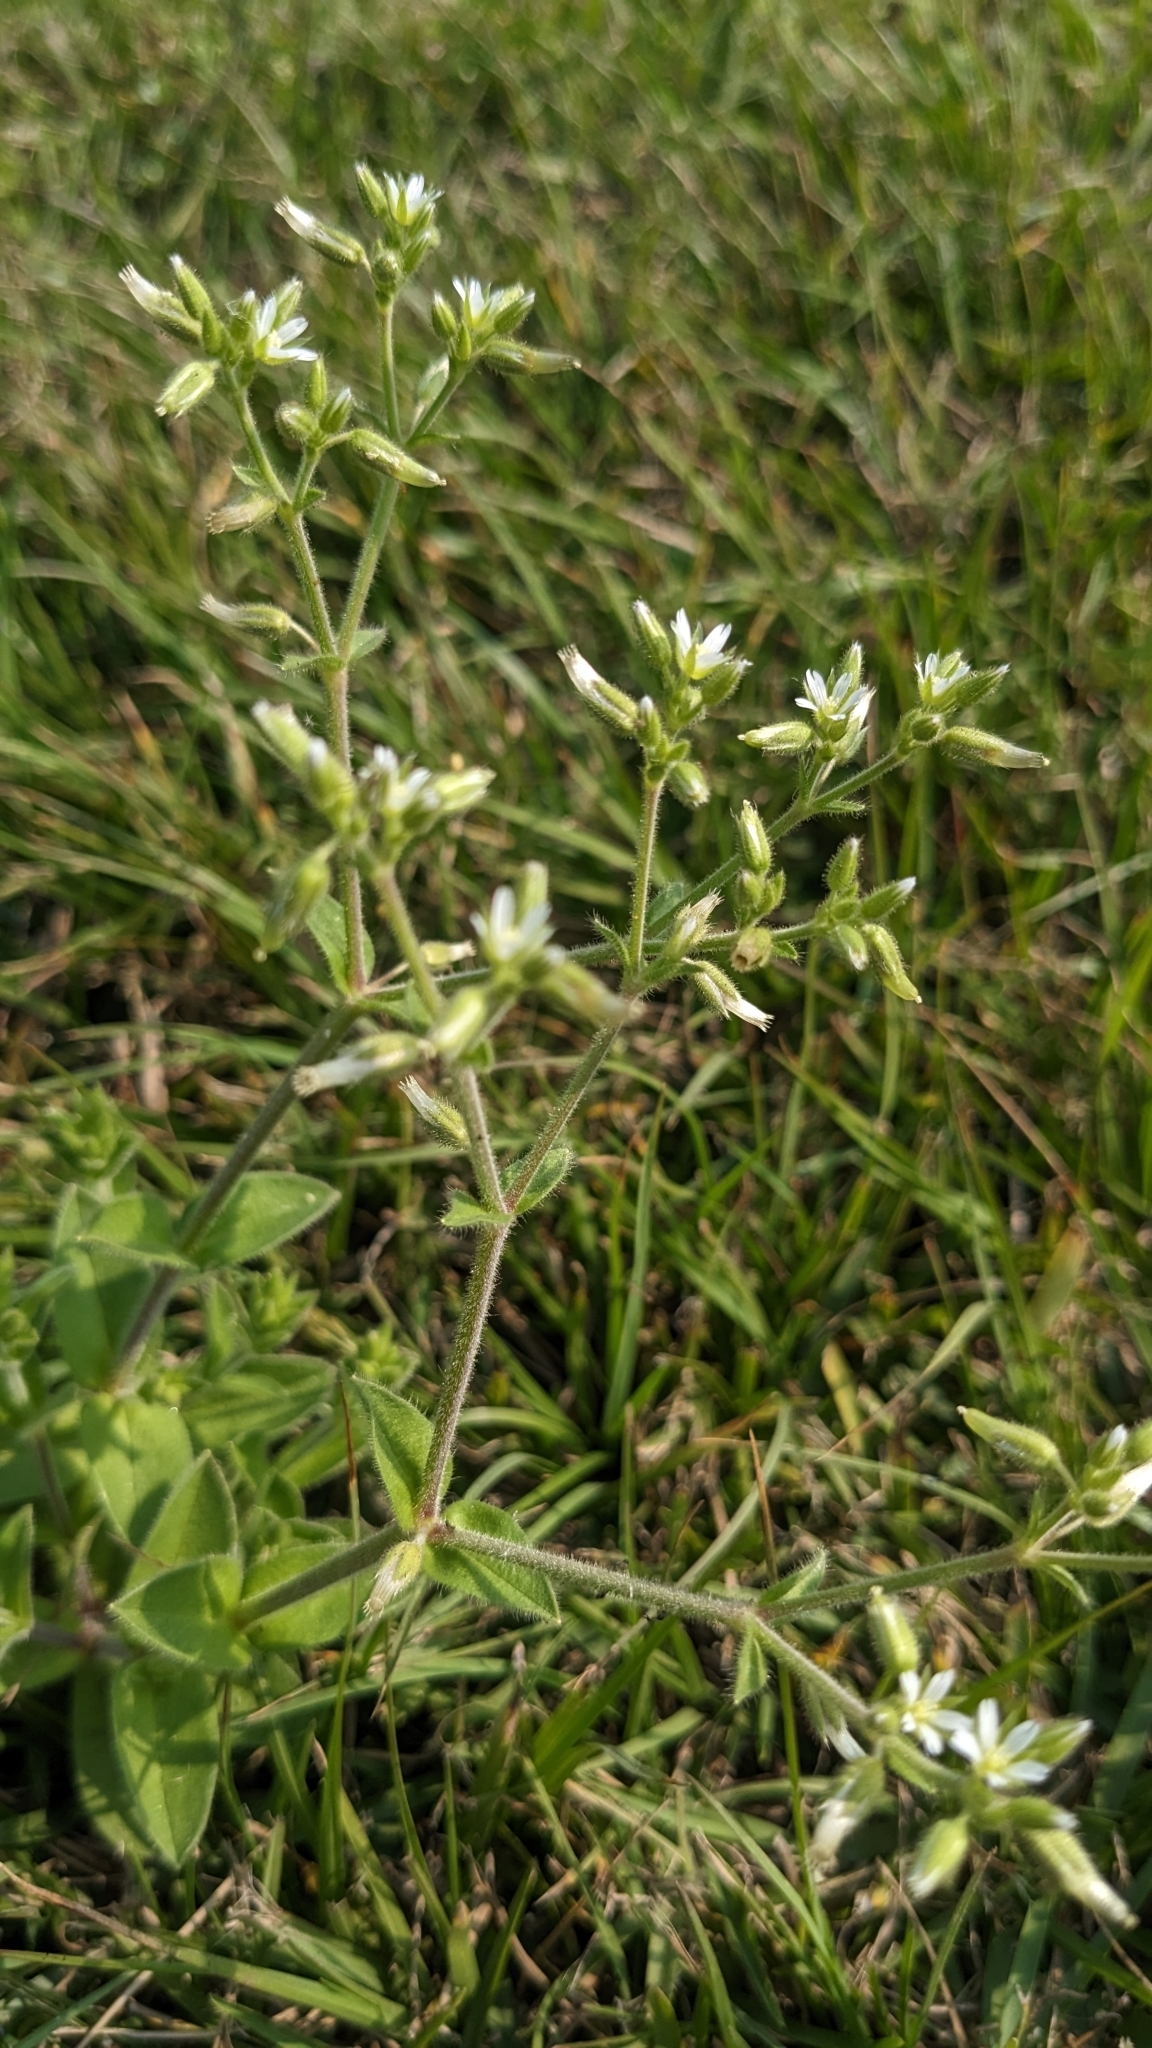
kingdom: Plantae
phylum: Tracheophyta
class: Magnoliopsida
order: Caryophyllales
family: Caryophyllaceae
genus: Cerastium
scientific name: Cerastium glomeratum
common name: Sticky chickweed
